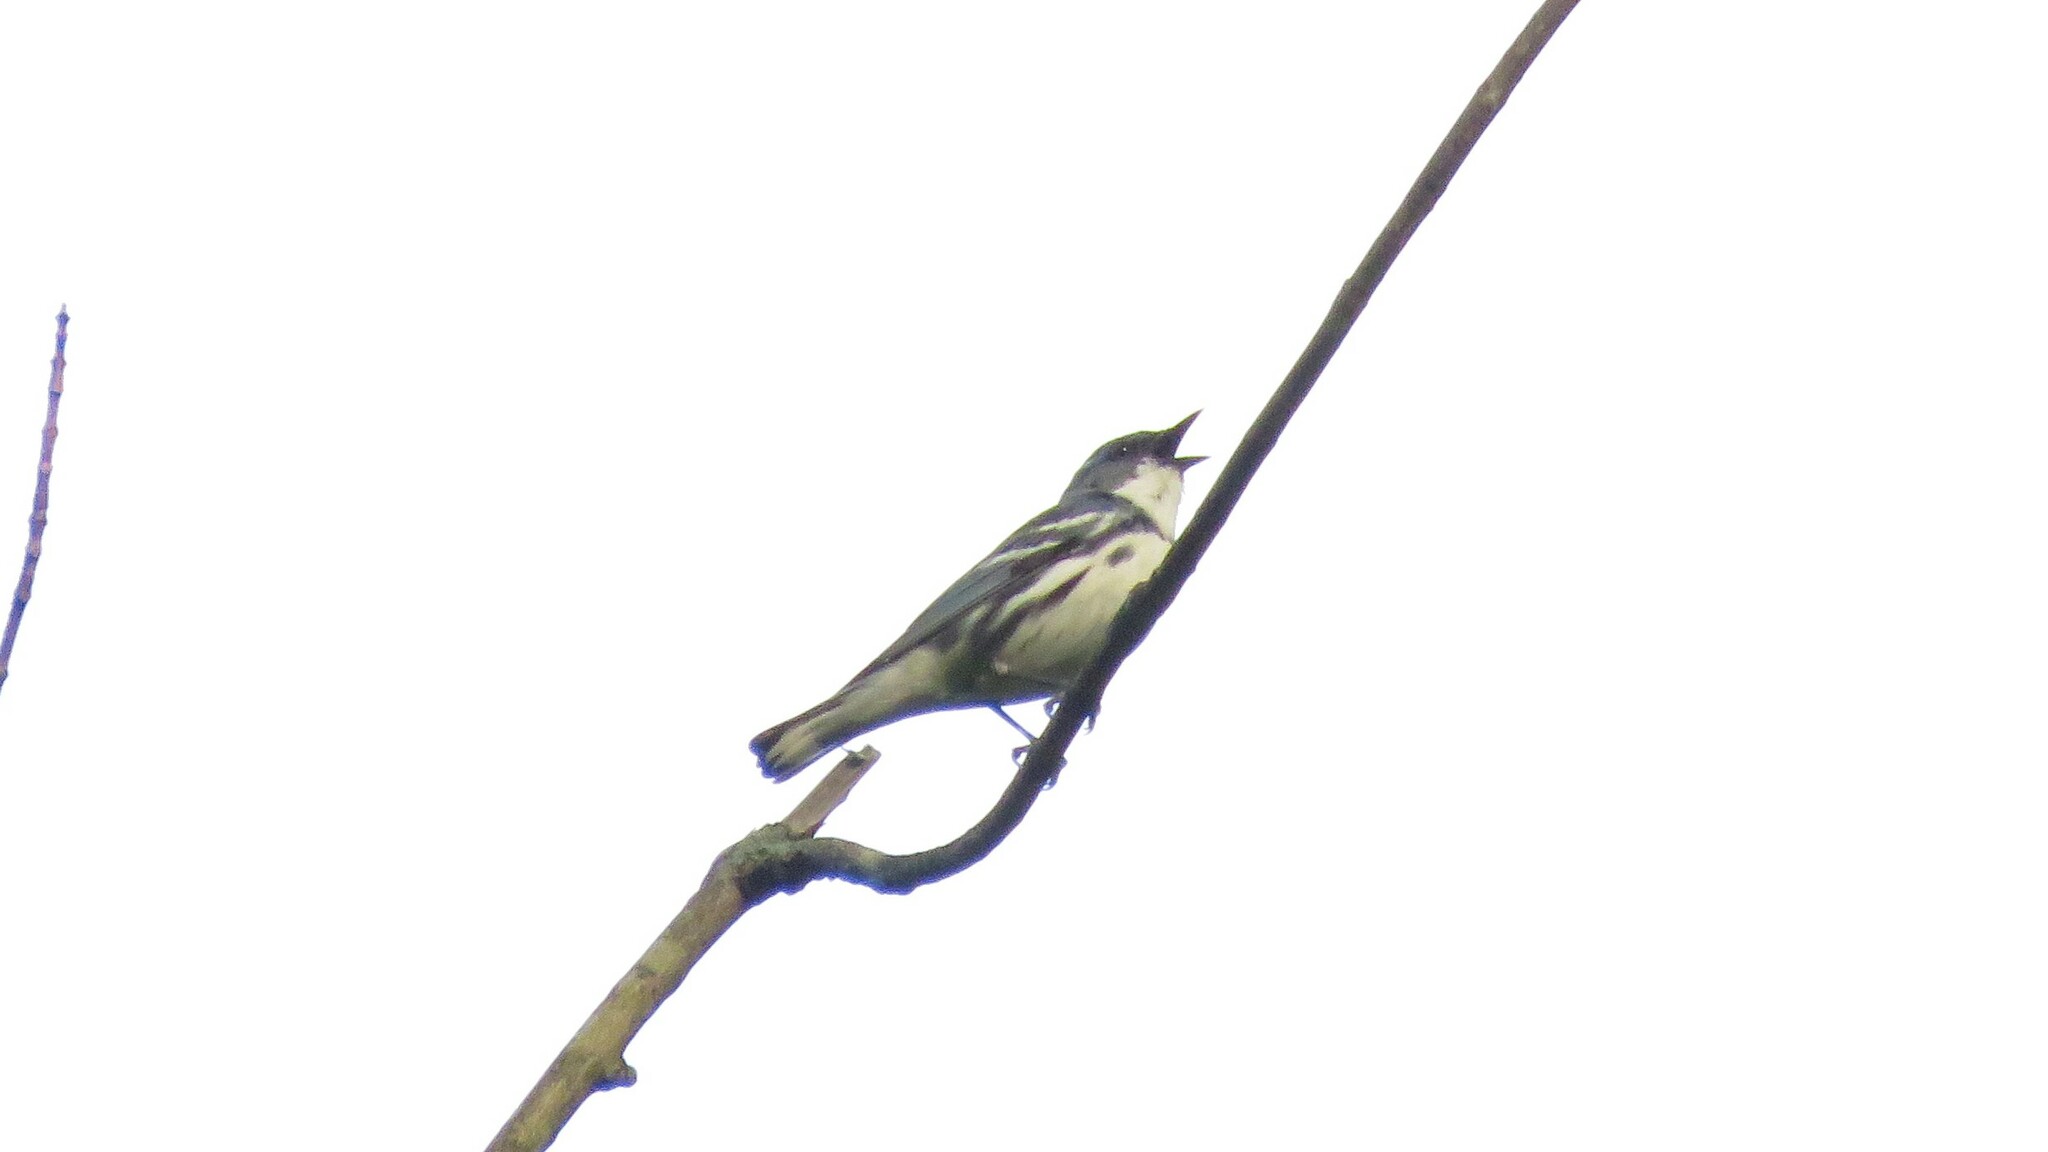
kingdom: Animalia
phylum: Chordata
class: Aves
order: Passeriformes
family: Parulidae
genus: Setophaga
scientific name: Setophaga cerulea
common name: Cerulean warbler
